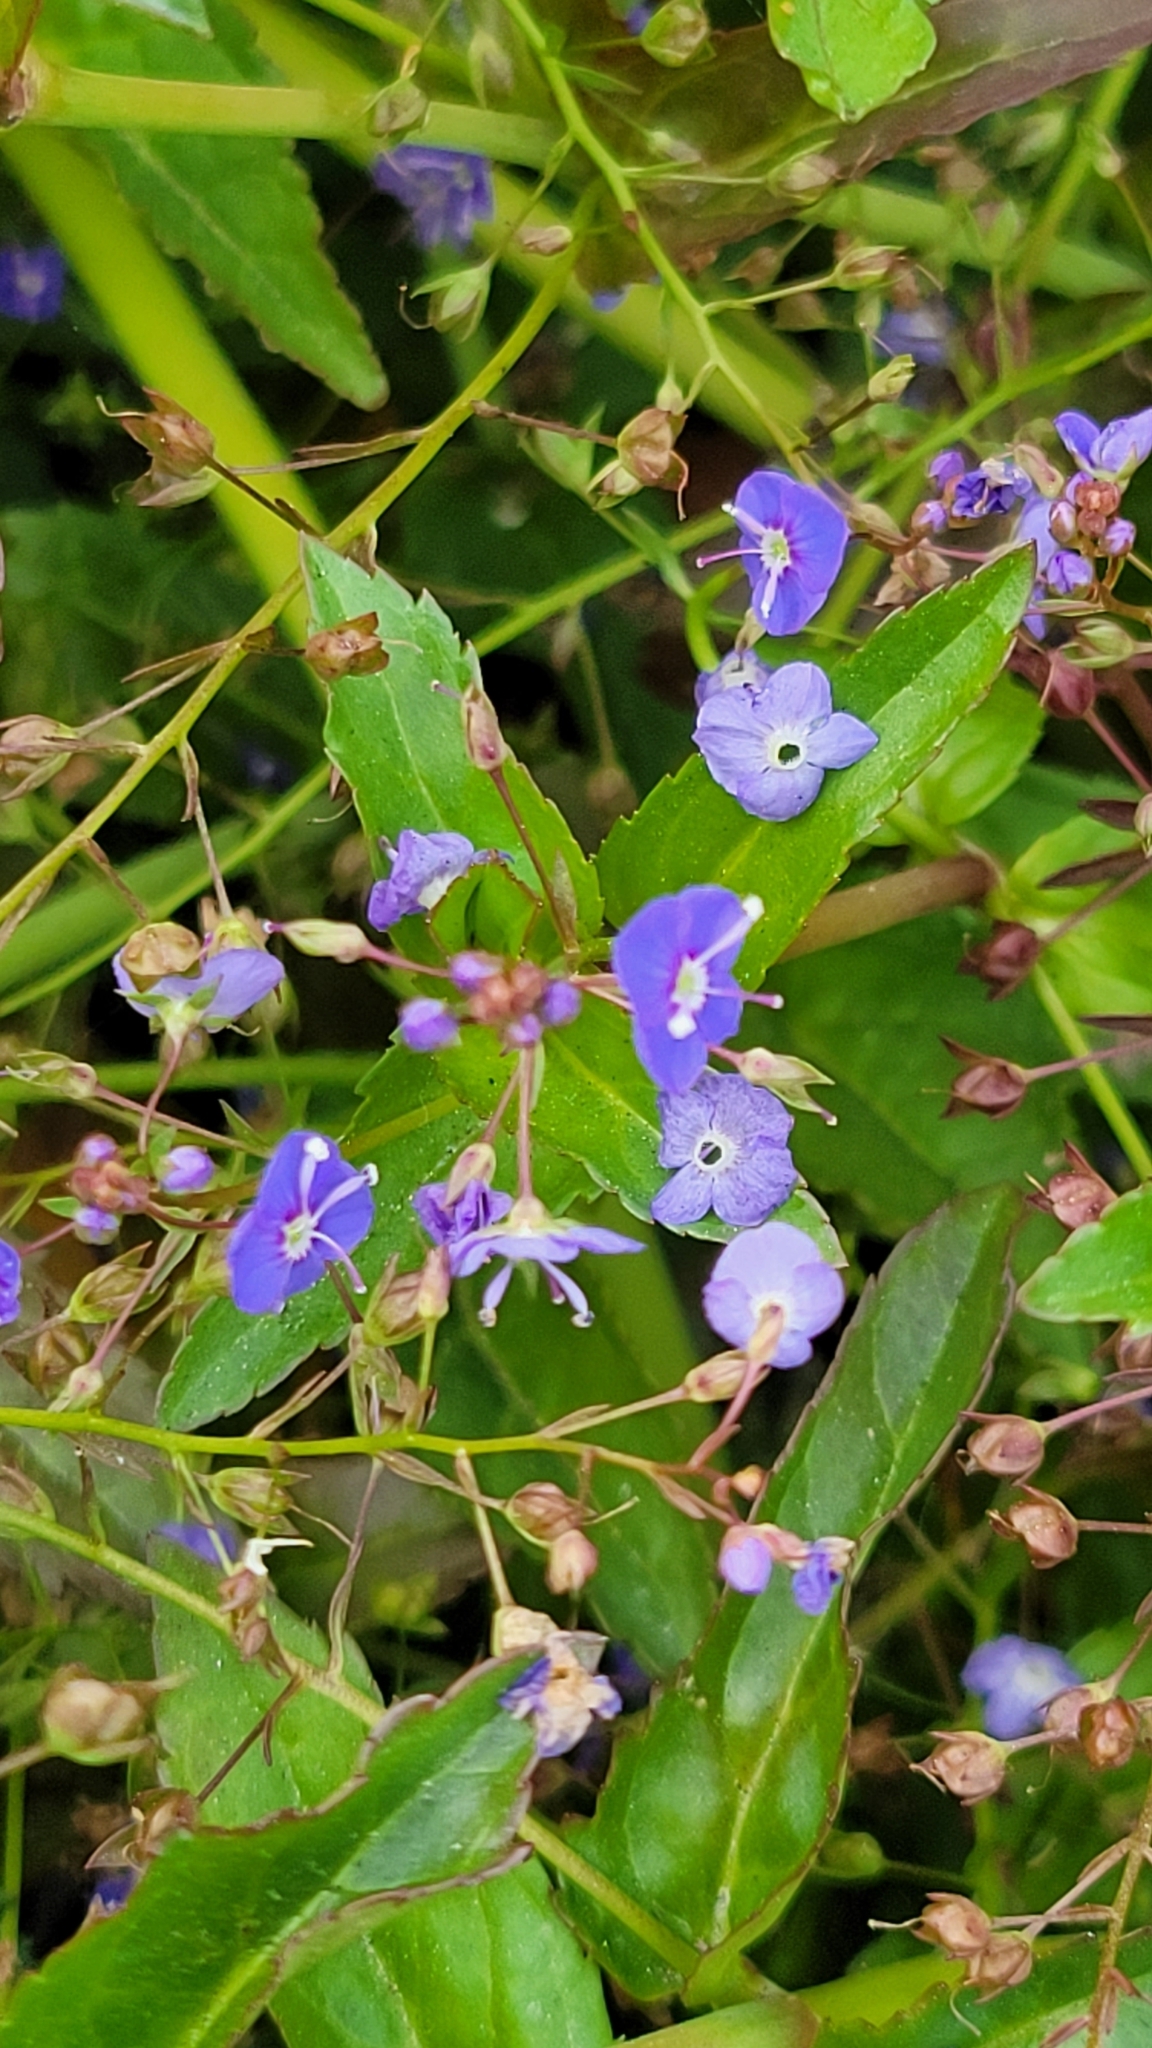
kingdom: Plantae
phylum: Tracheophyta
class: Magnoliopsida
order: Lamiales
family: Plantaginaceae
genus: Veronica
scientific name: Veronica americana
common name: American brooklime
